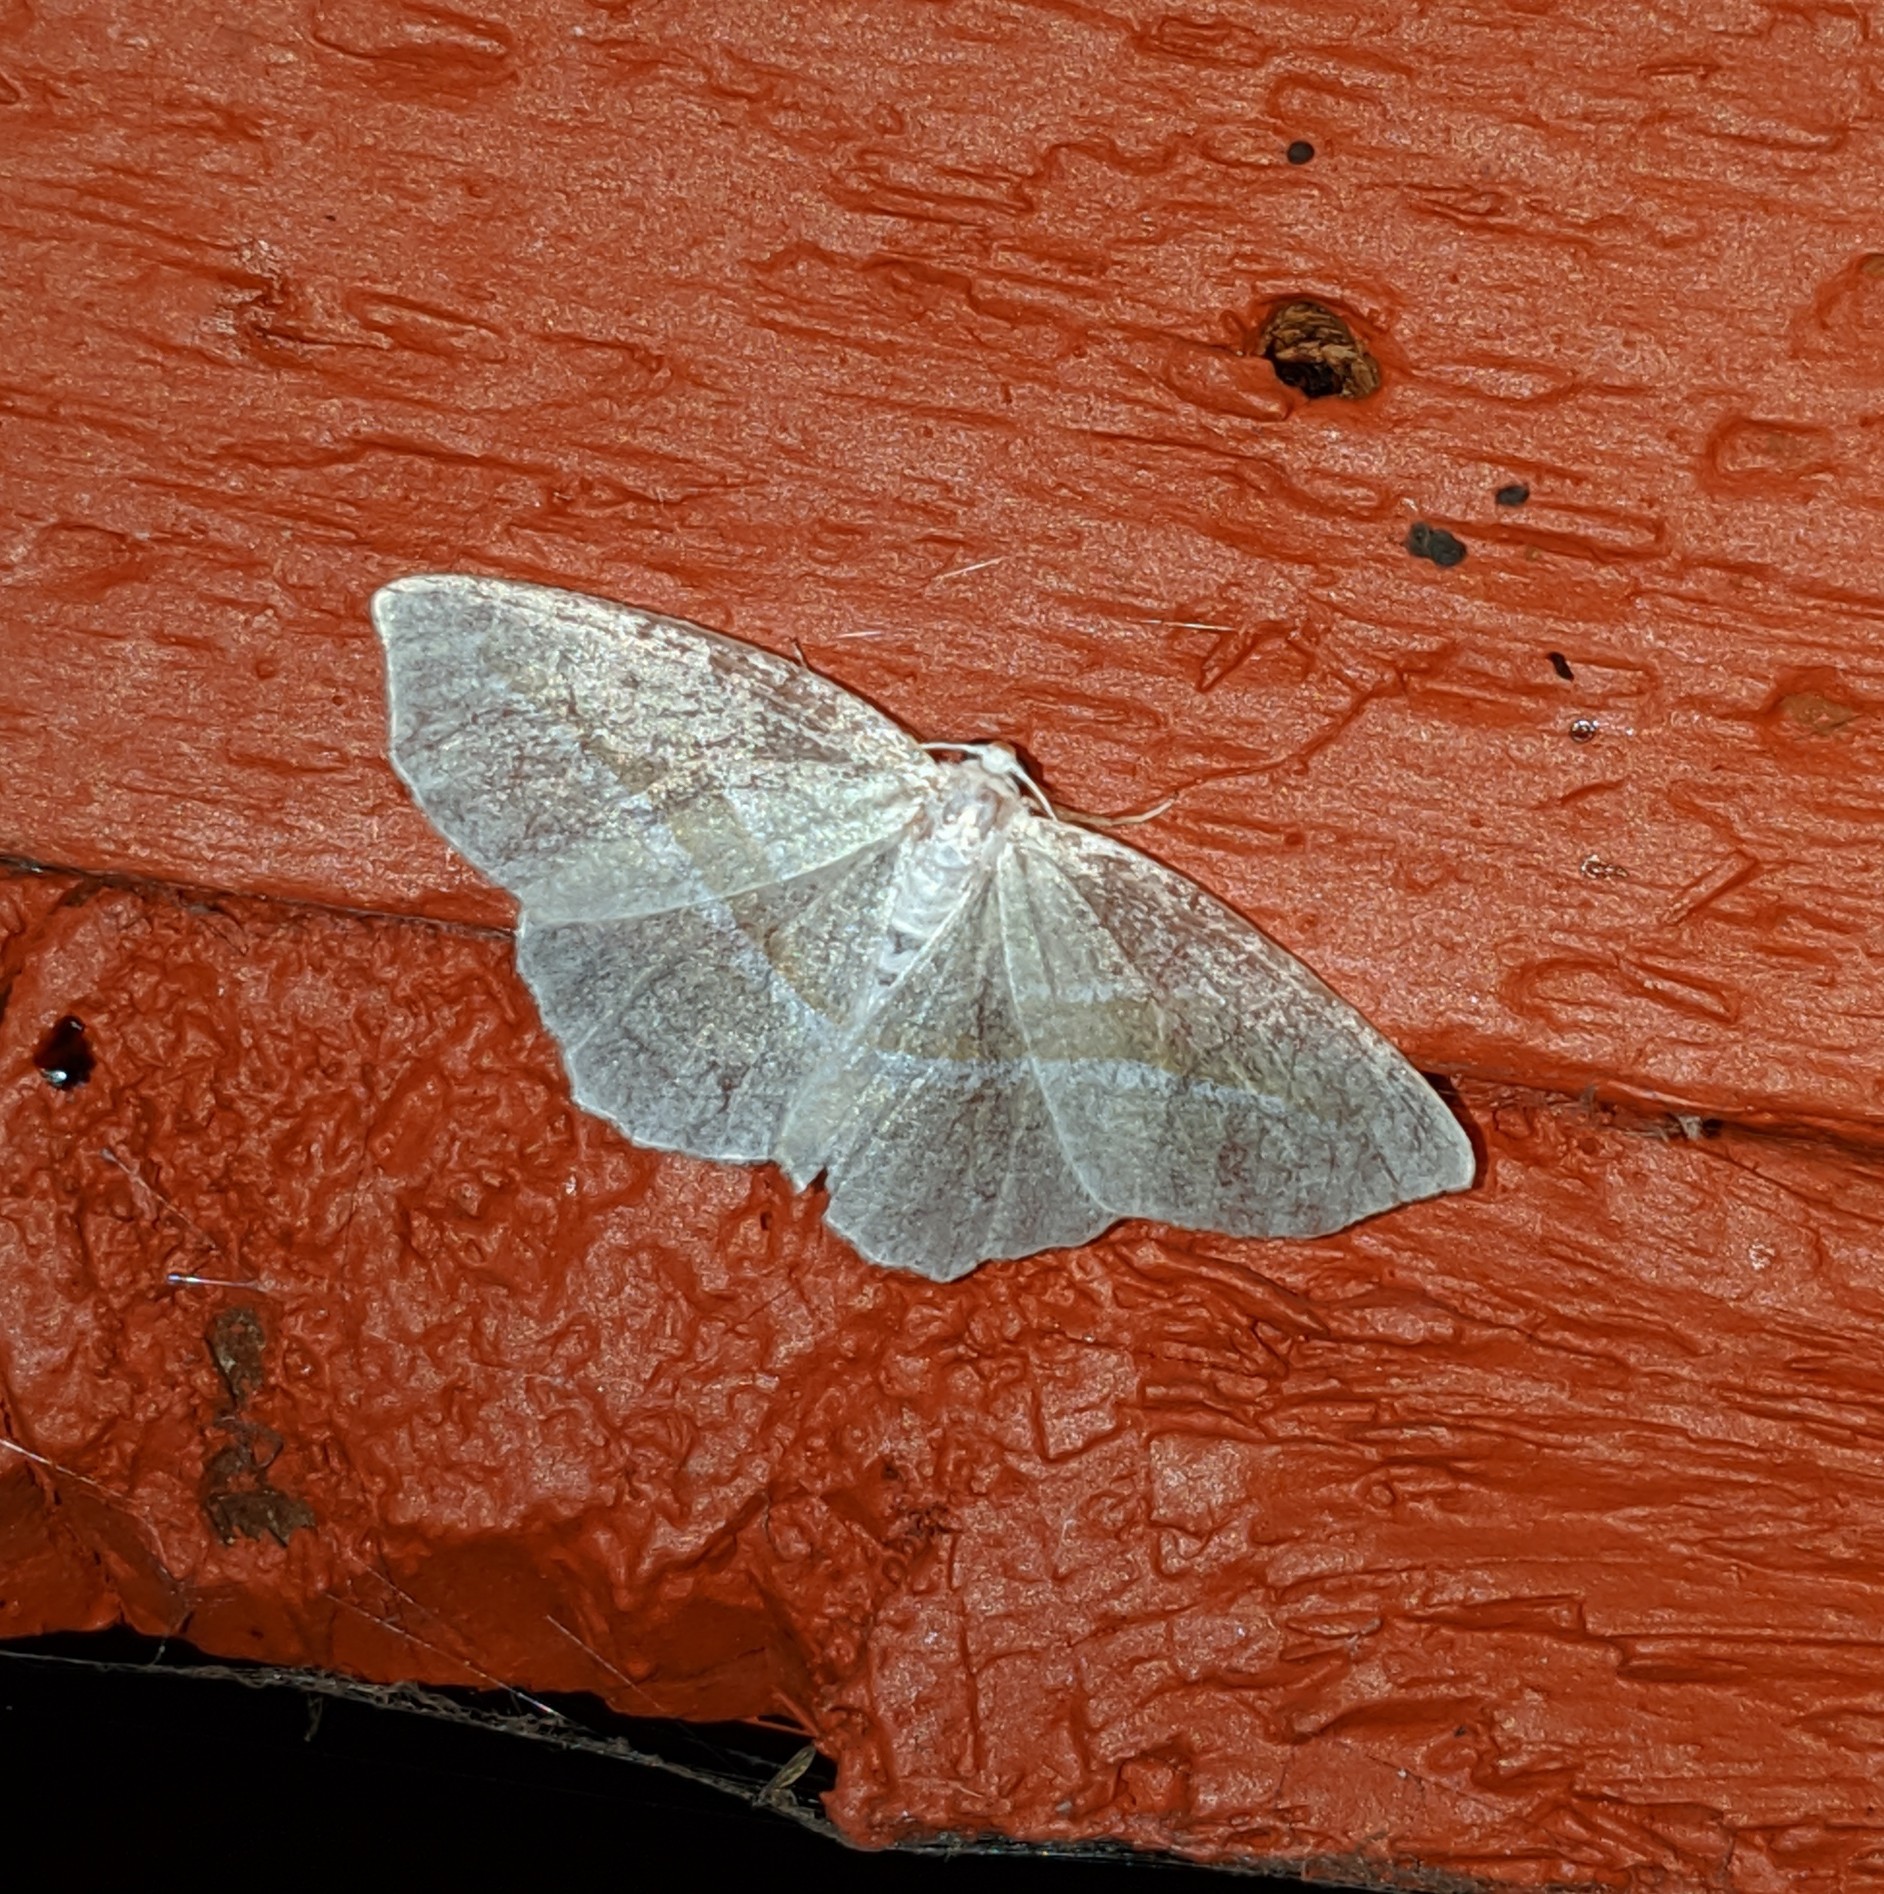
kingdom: Animalia
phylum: Arthropoda
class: Insecta
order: Lepidoptera
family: Geometridae
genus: Campaea
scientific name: Campaea perlata
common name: Fringed looper
